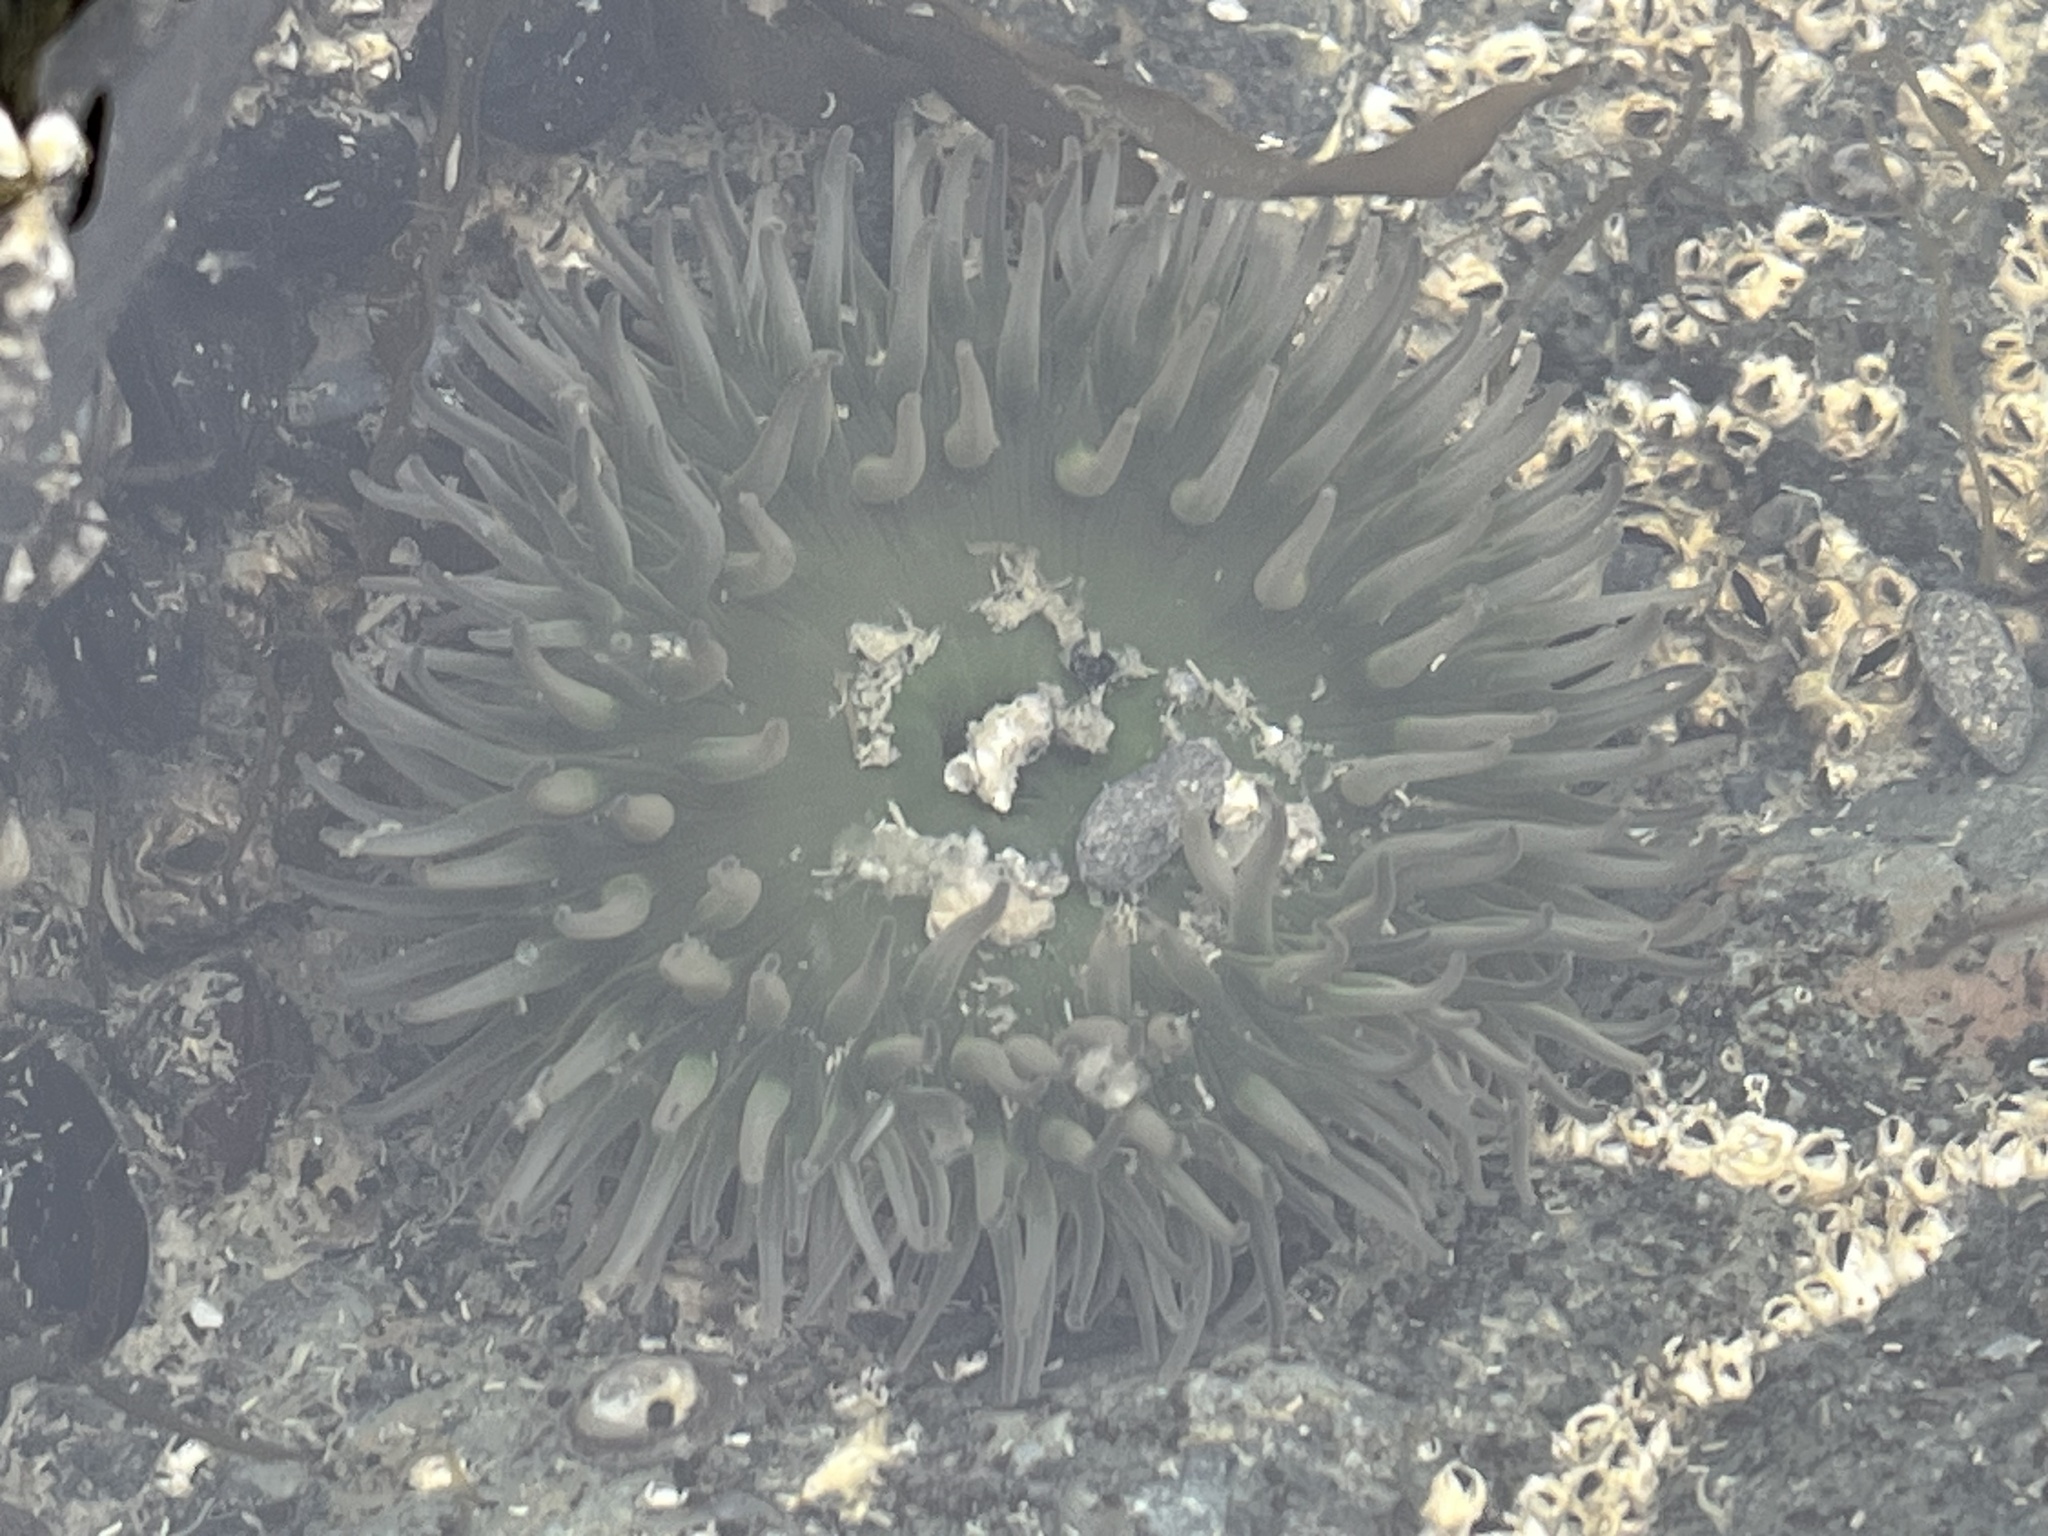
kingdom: Animalia
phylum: Cnidaria
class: Anthozoa
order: Actiniaria
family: Actiniidae
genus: Anthopleura
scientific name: Anthopleura xanthogrammica
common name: Giant green anemone
